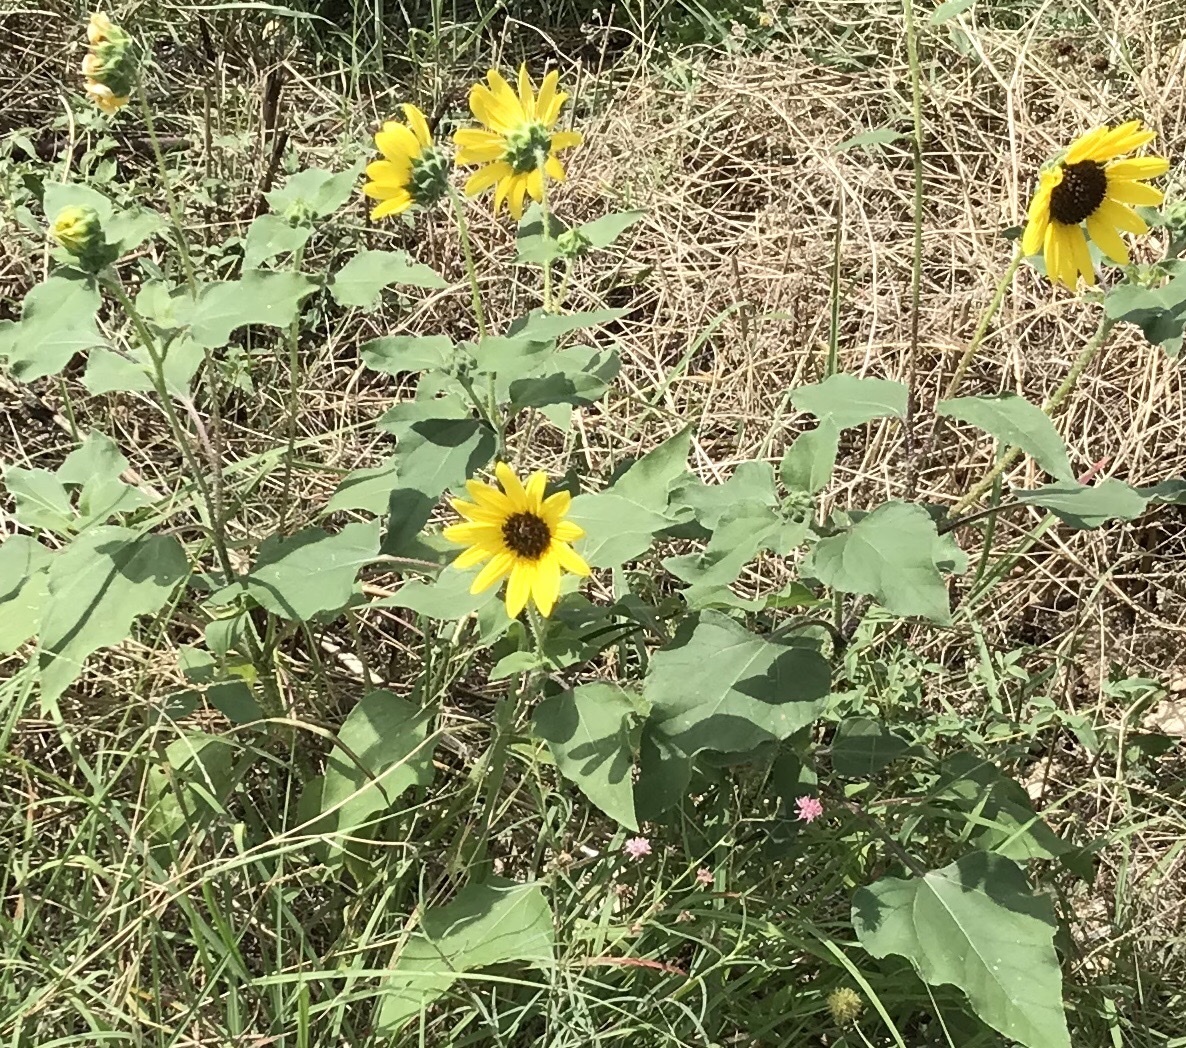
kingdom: Plantae
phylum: Tracheophyta
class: Magnoliopsida
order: Asterales
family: Asteraceae
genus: Helianthus
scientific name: Helianthus annuus
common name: Sunflower
